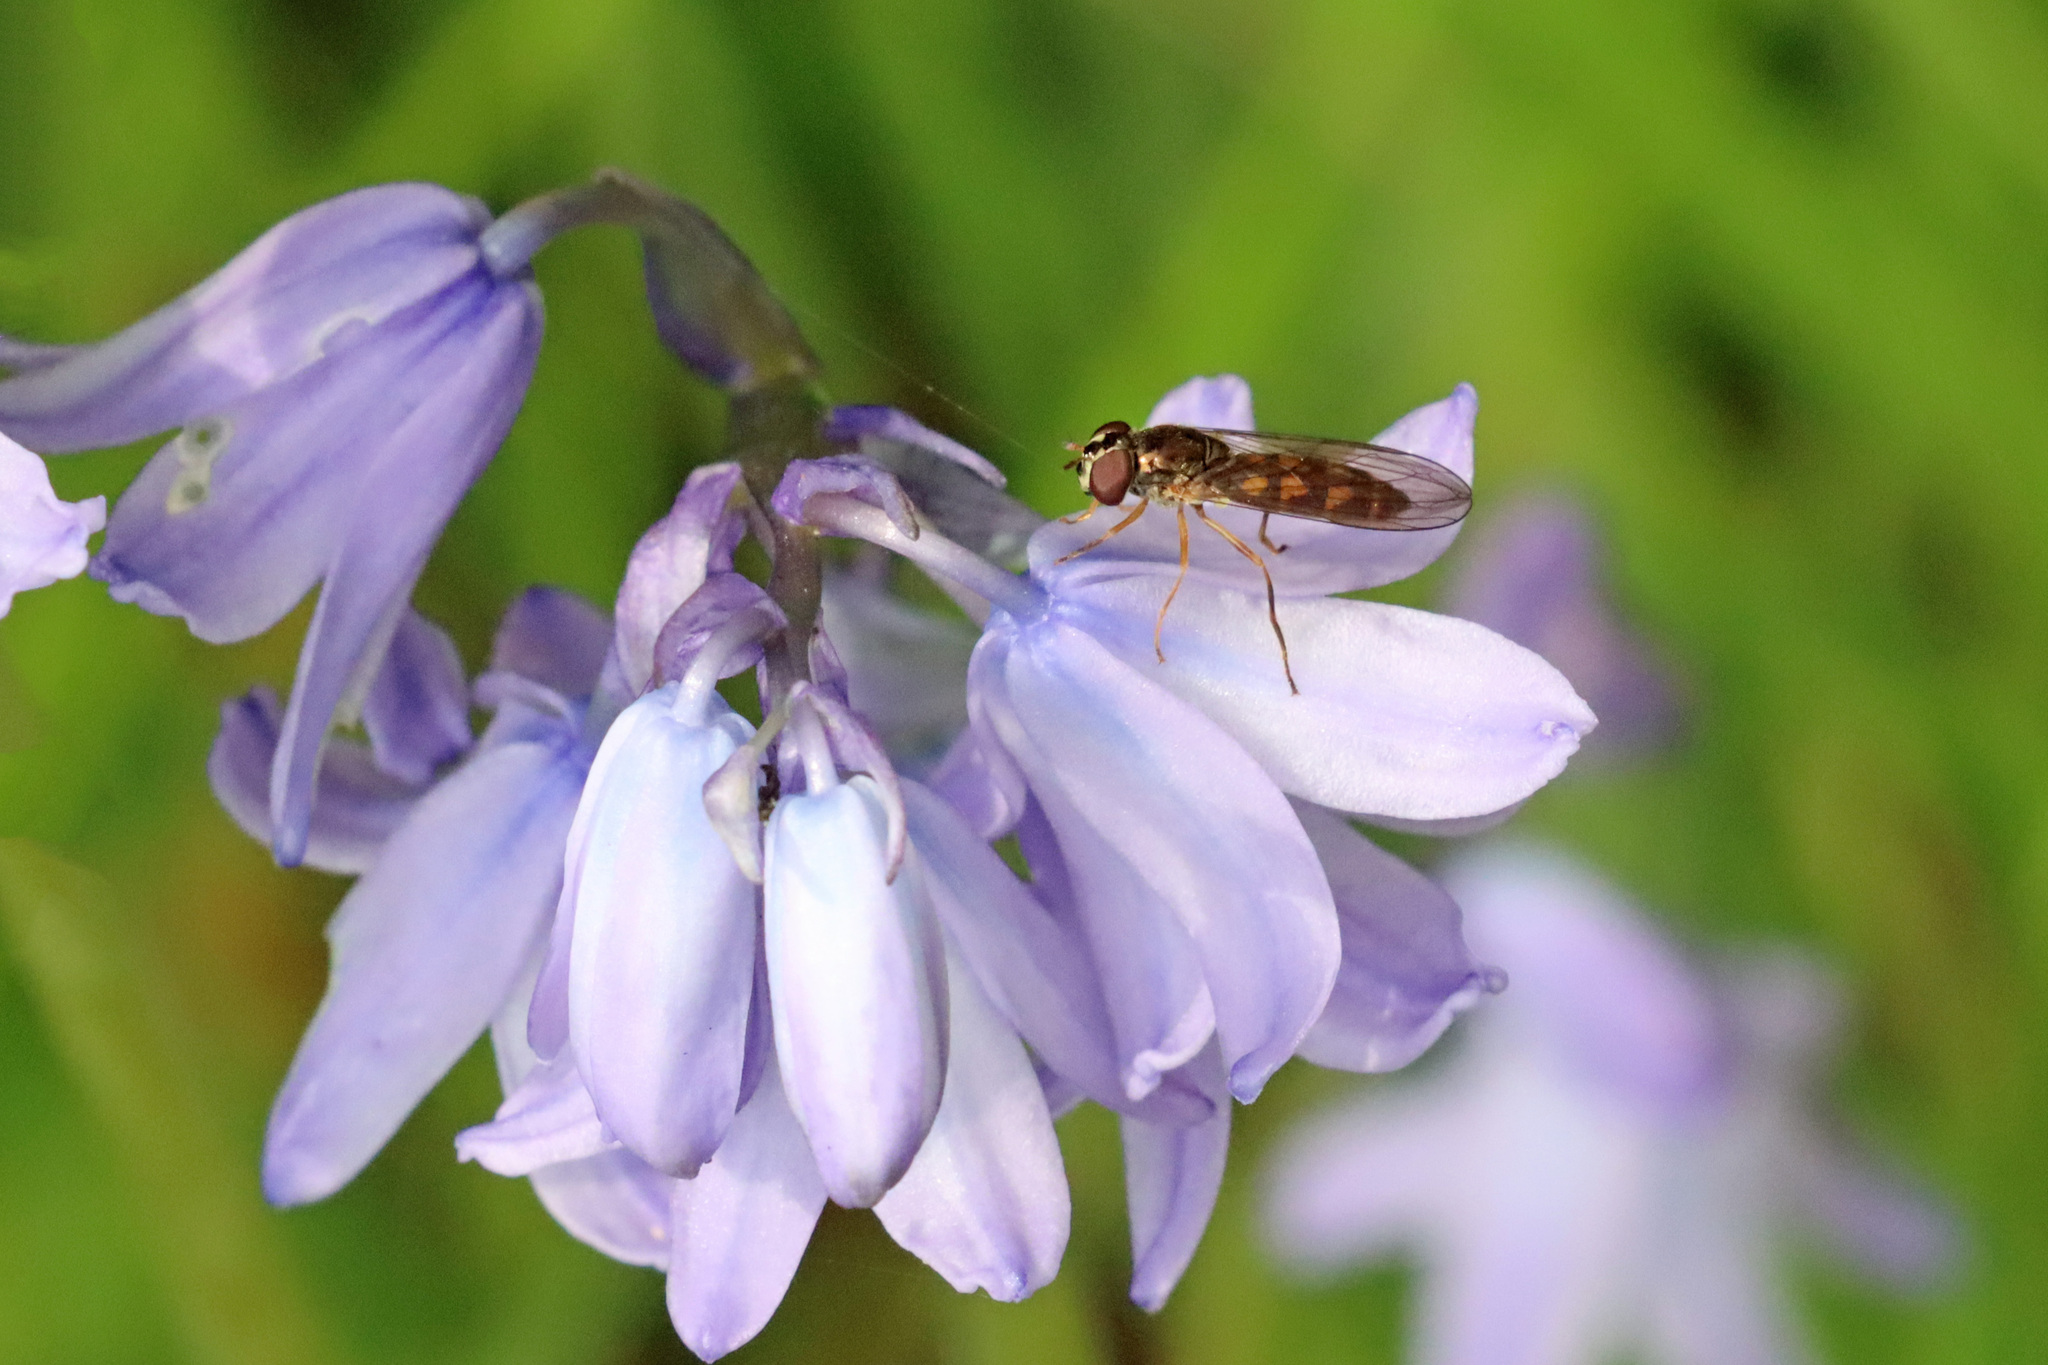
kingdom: Animalia
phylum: Arthropoda
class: Insecta
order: Diptera
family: Syrphidae
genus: Melanostoma
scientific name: Melanostoma scalare
